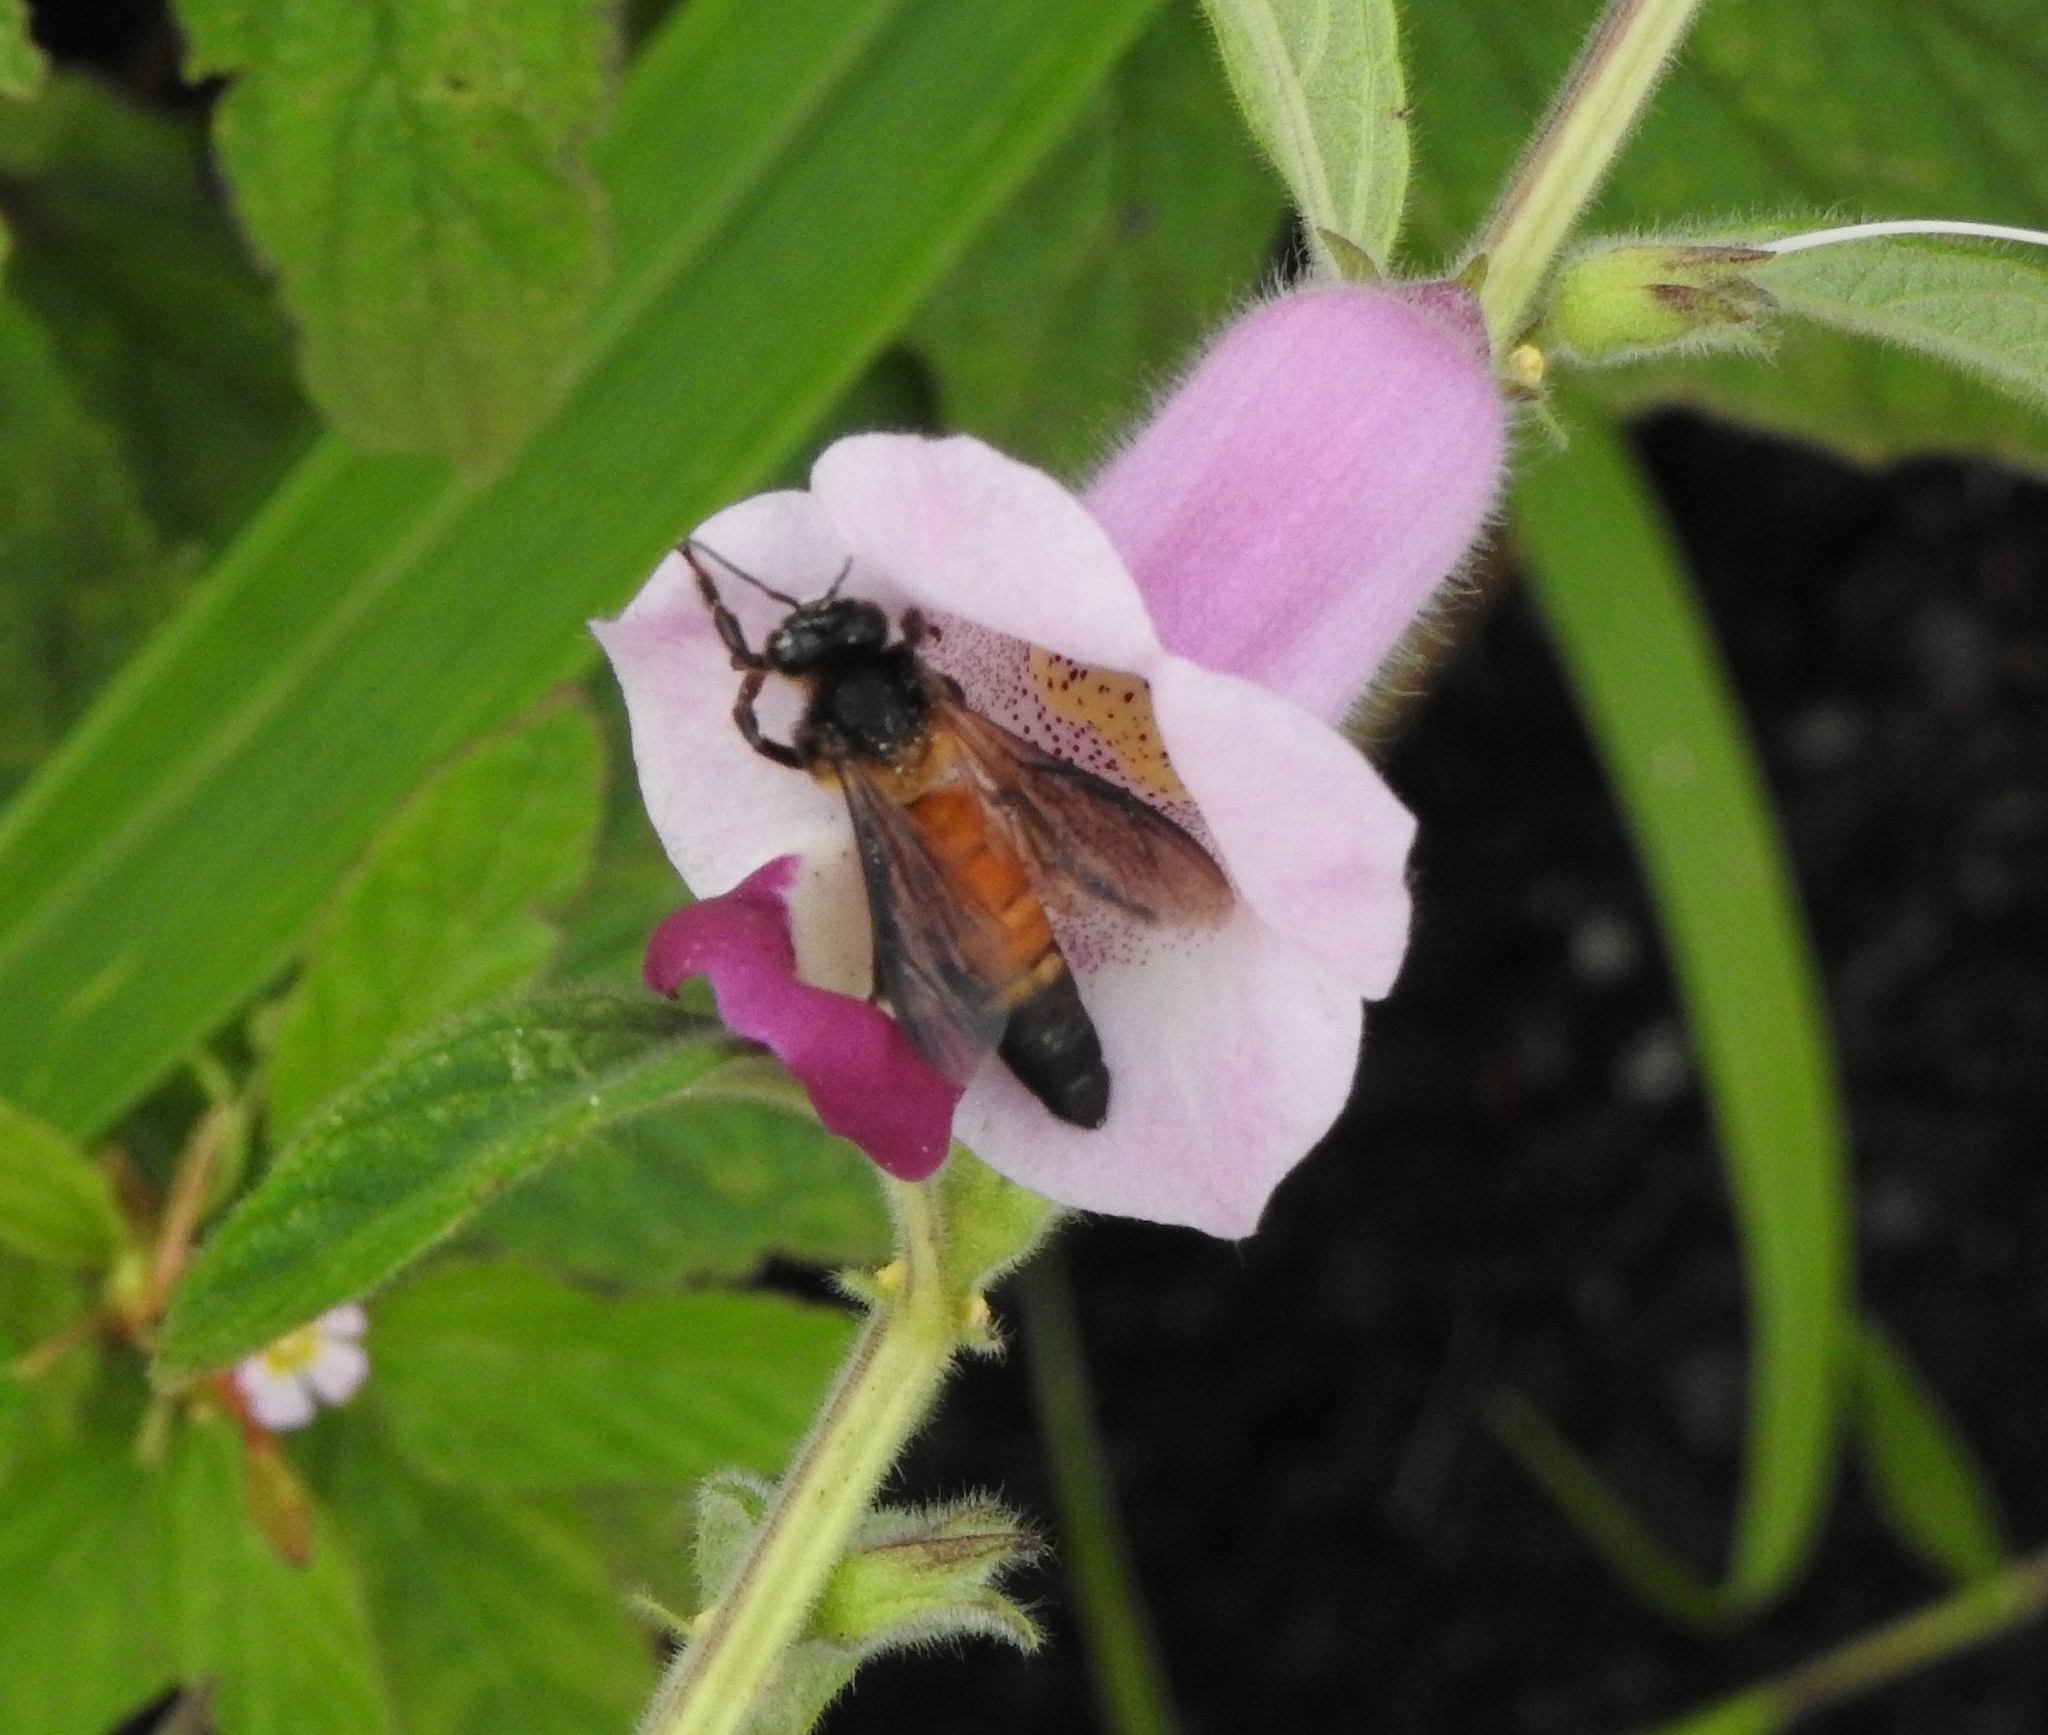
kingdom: Animalia
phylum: Arthropoda
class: Insecta
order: Hymenoptera
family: Apidae
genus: Apis
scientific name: Apis dorsata
